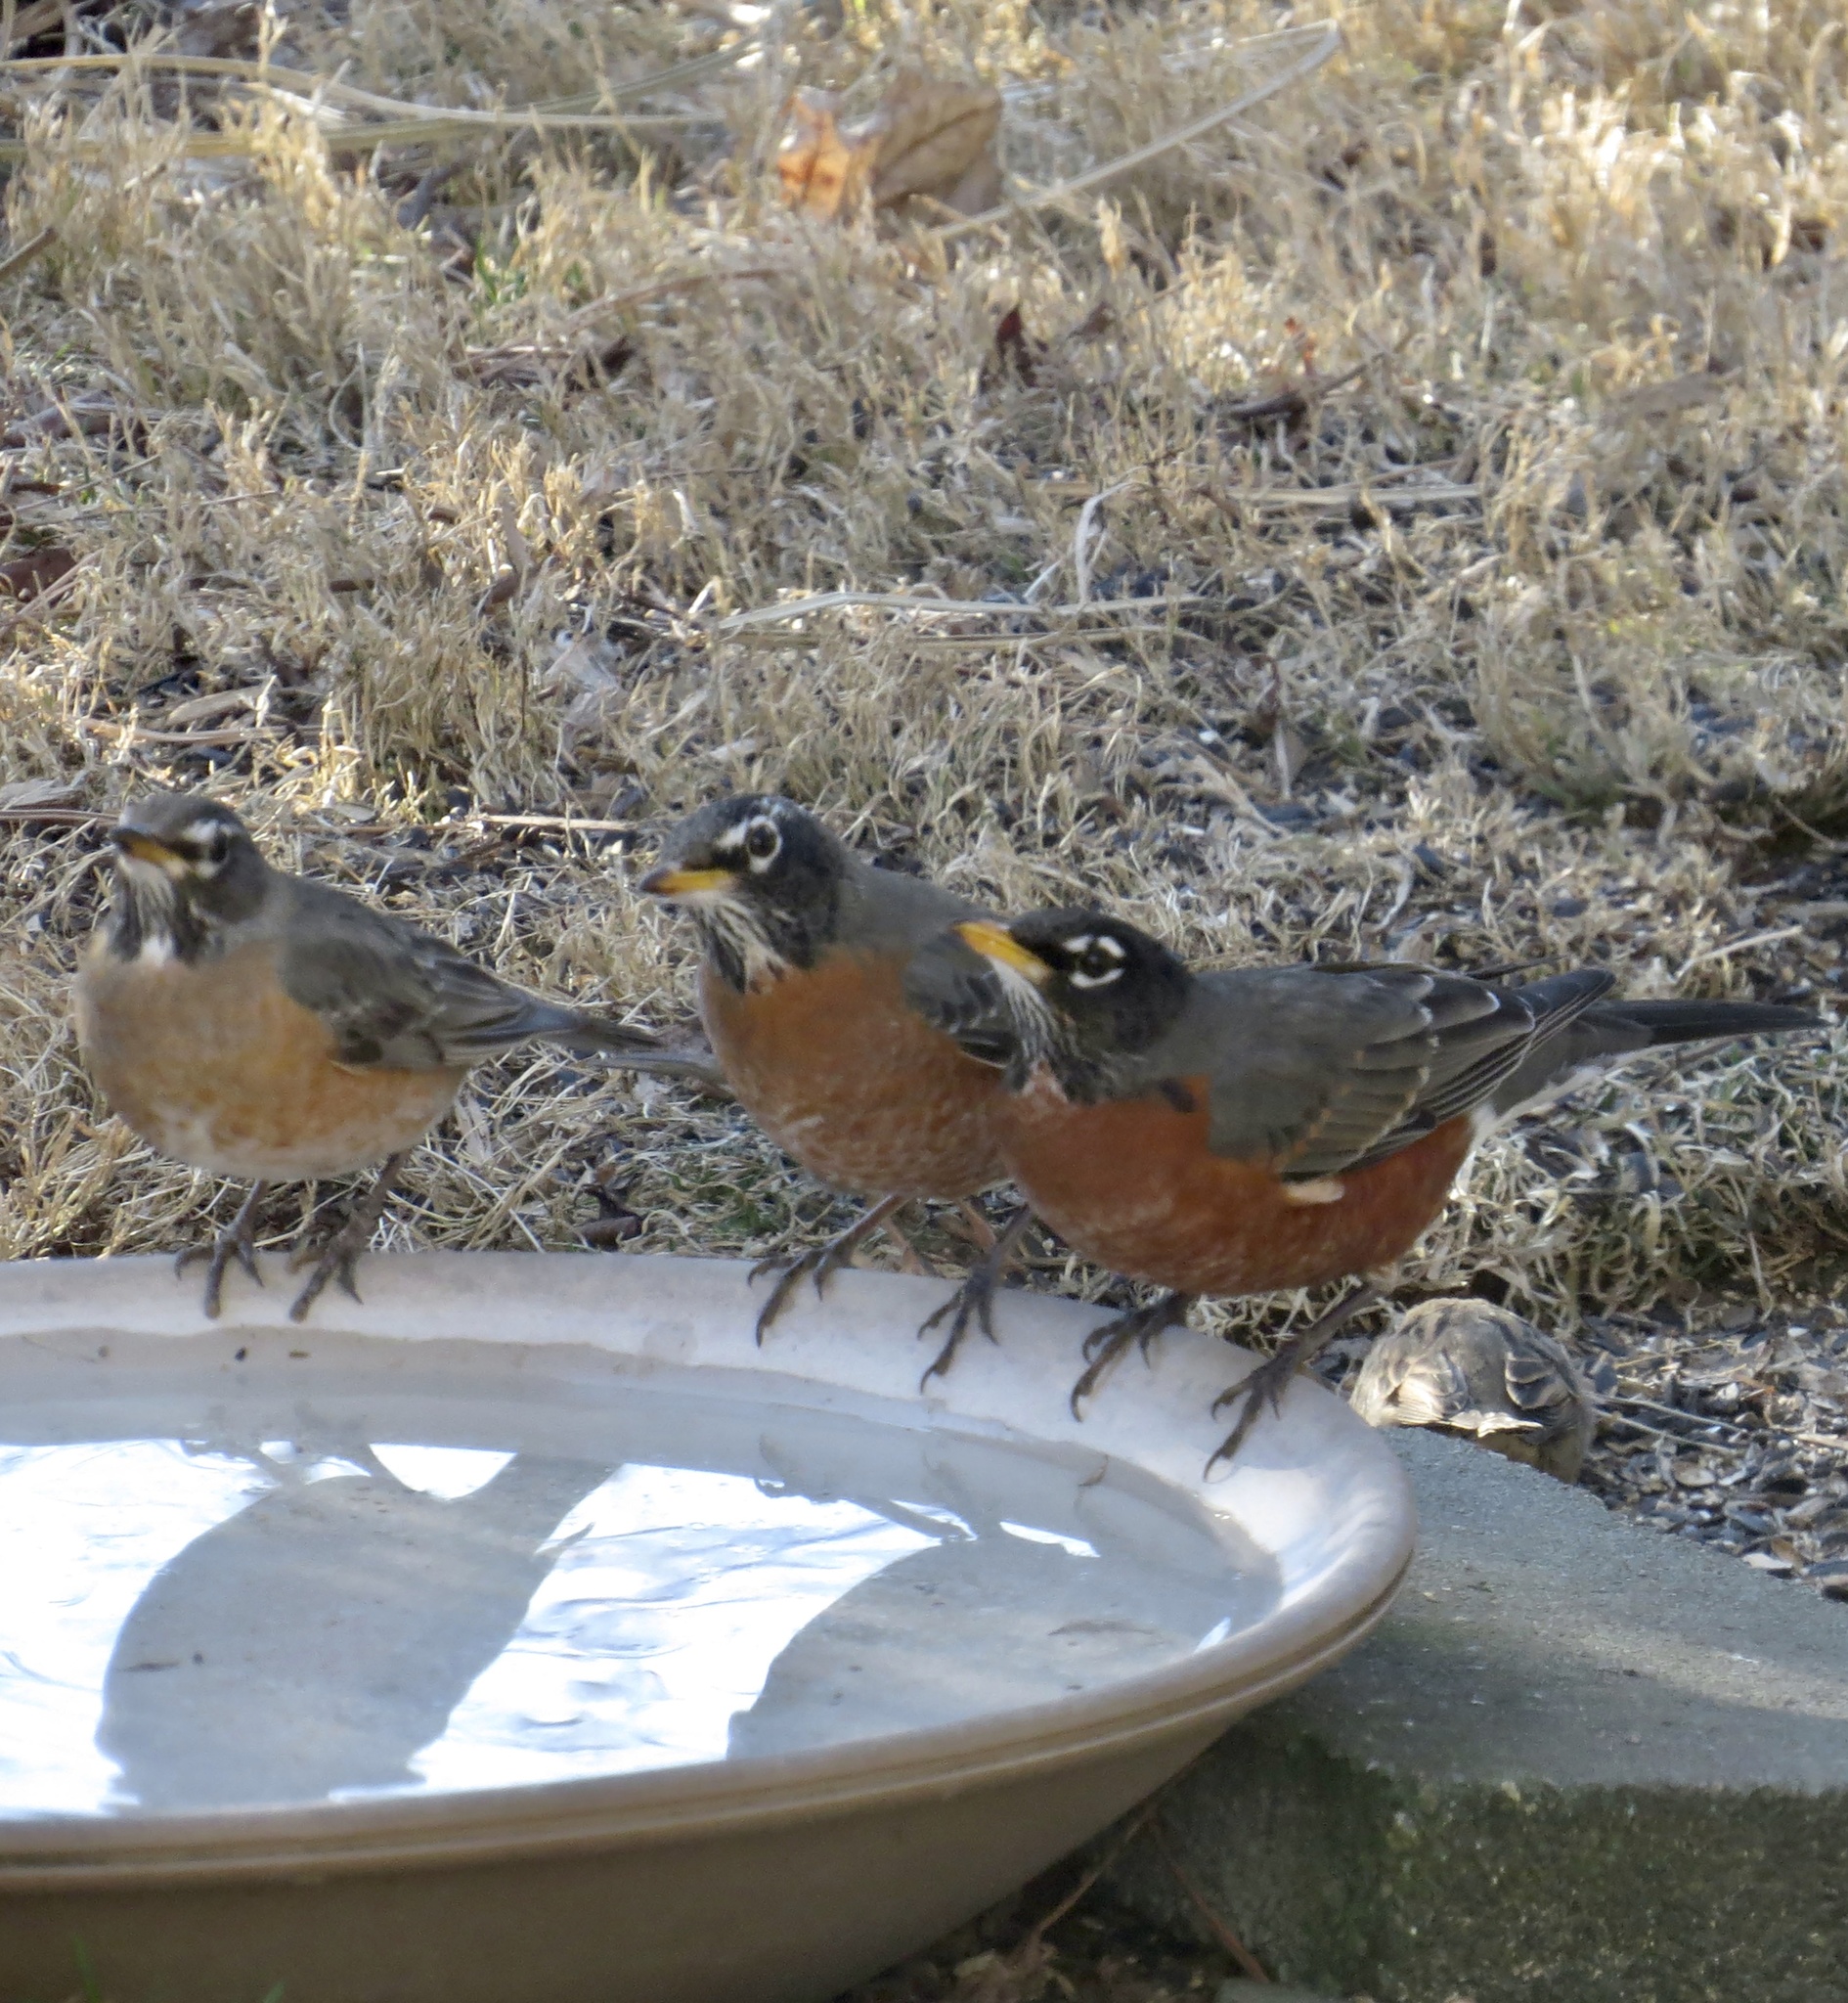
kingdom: Animalia
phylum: Chordata
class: Aves
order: Passeriformes
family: Turdidae
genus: Turdus
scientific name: Turdus migratorius
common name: American robin
